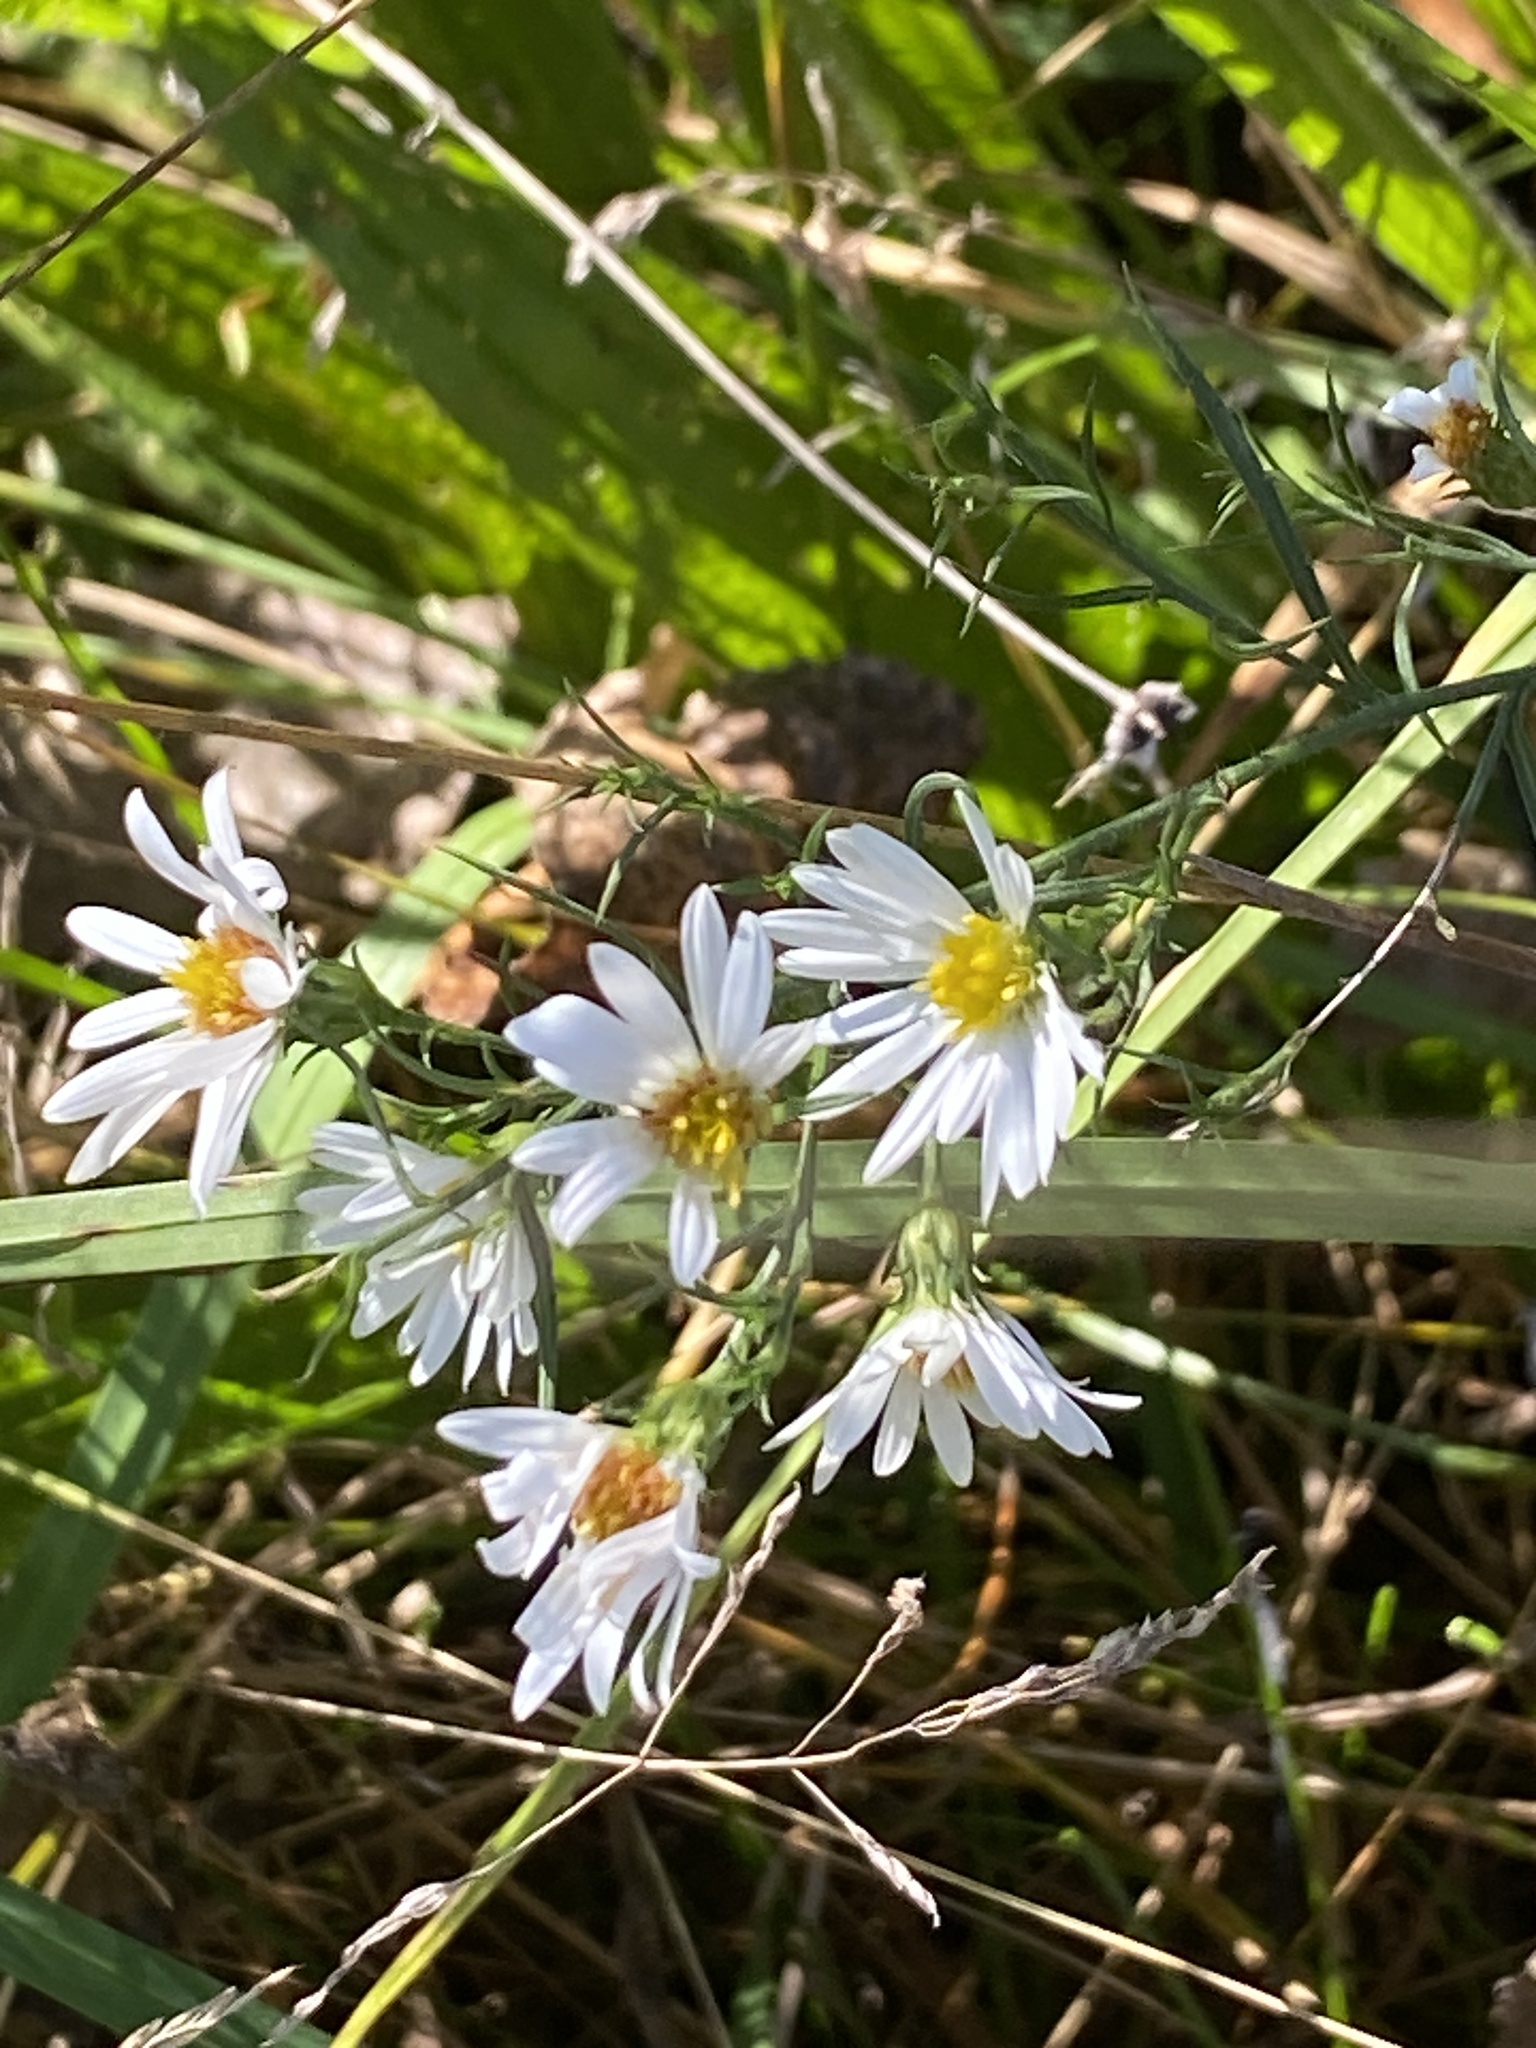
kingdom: Plantae
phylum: Tracheophyta
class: Magnoliopsida
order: Asterales
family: Asteraceae
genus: Symphyotrichum
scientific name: Symphyotrichum pilosum
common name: Awl aster
